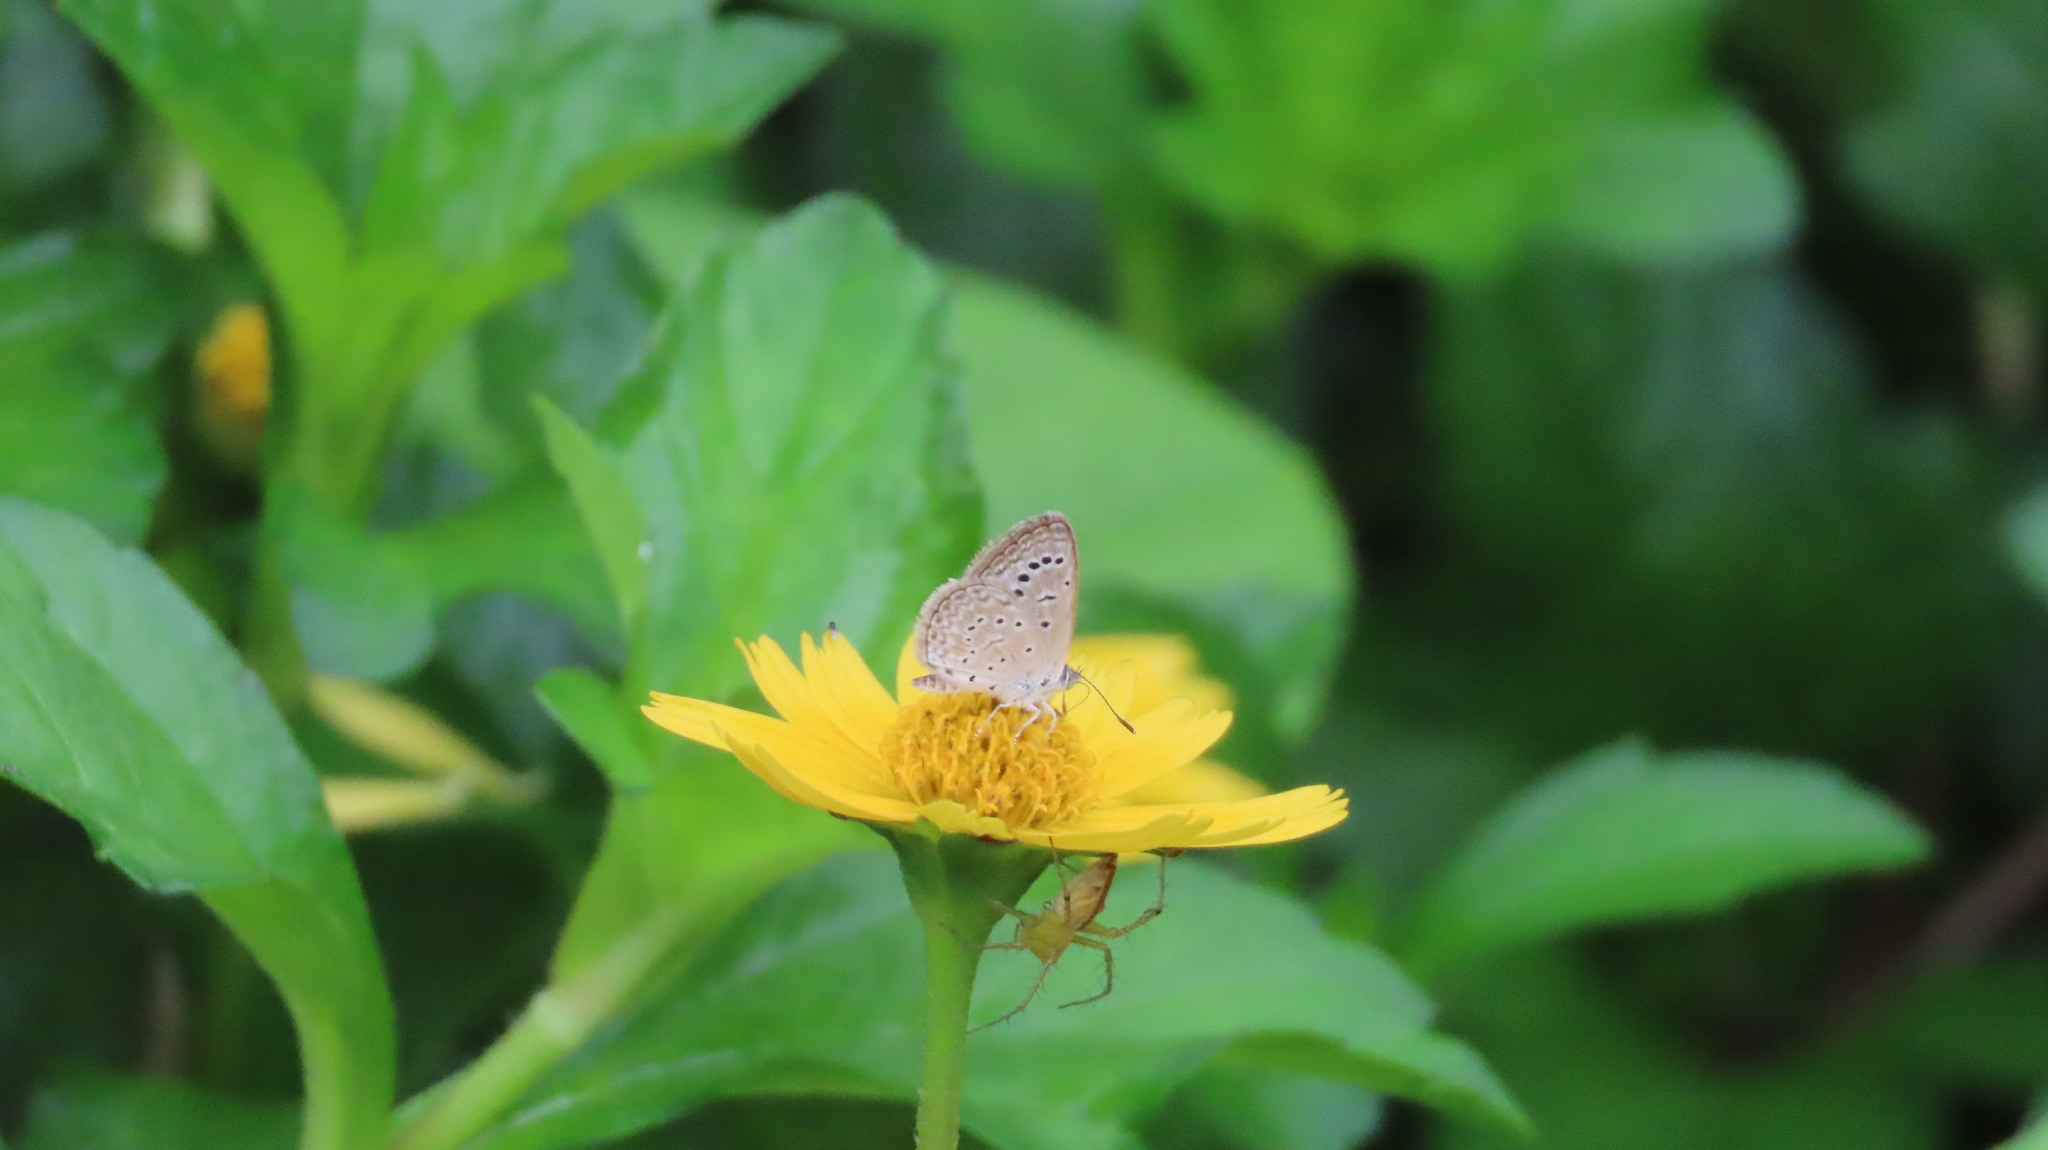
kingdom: Animalia
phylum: Arthropoda
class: Insecta
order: Lepidoptera
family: Lycaenidae
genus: Zizeeria
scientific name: Zizeeria karsandra
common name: Dark grass blue
